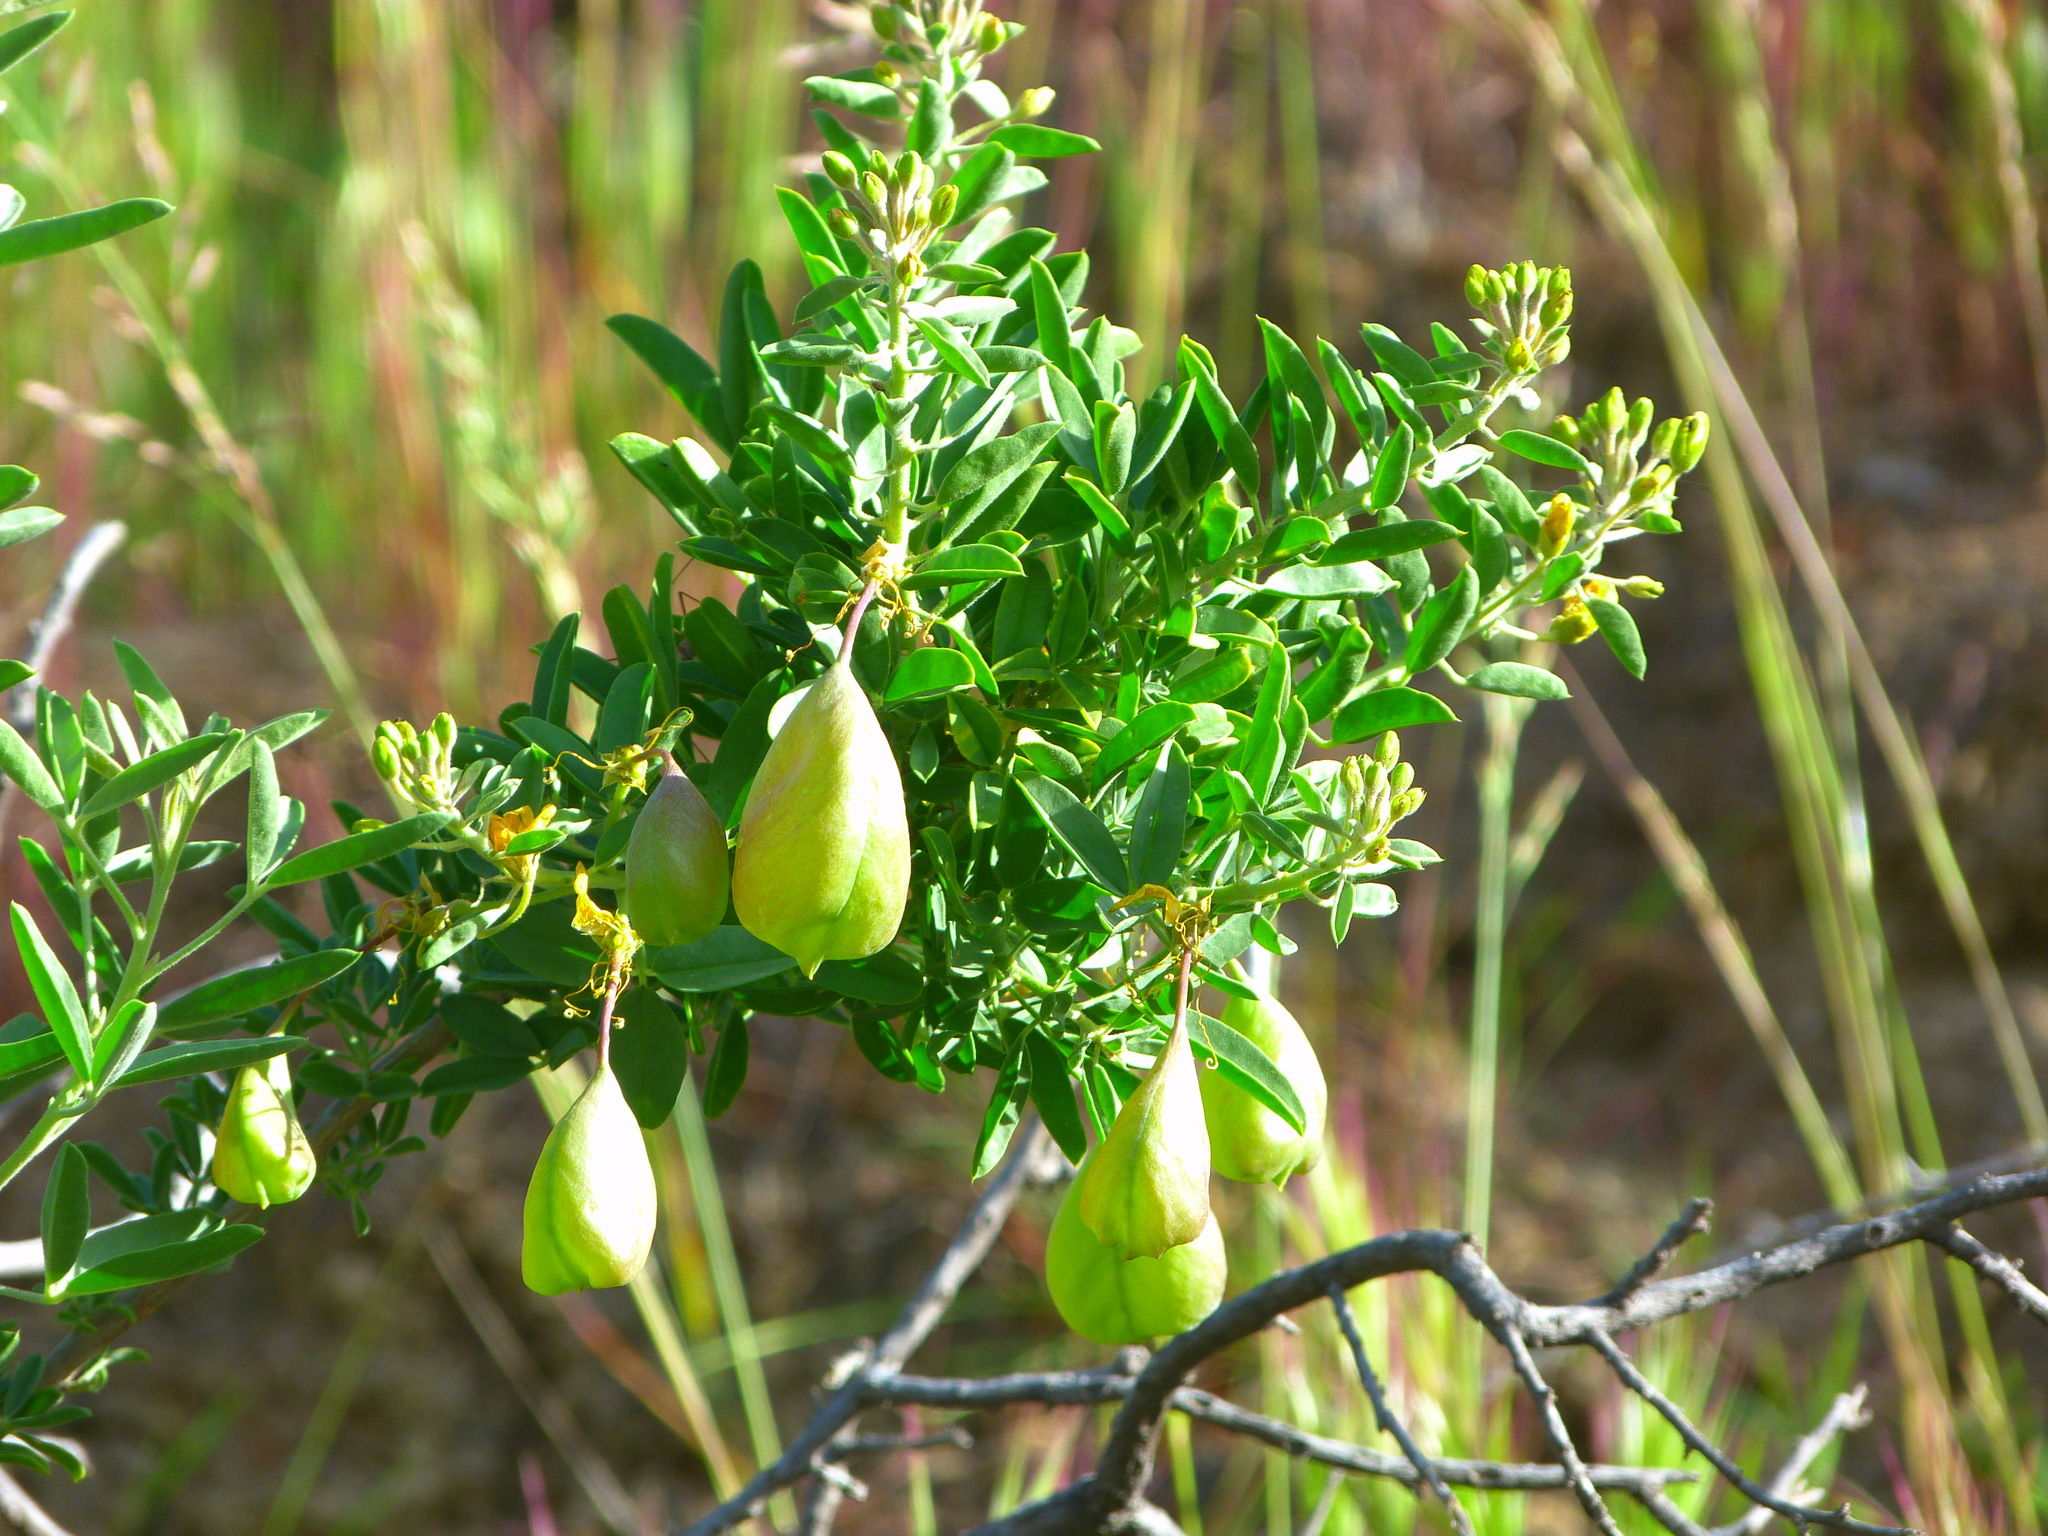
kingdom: Plantae
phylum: Tracheophyta
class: Magnoliopsida
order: Brassicales
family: Cleomaceae
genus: Cleomella
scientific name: Cleomella arborea
